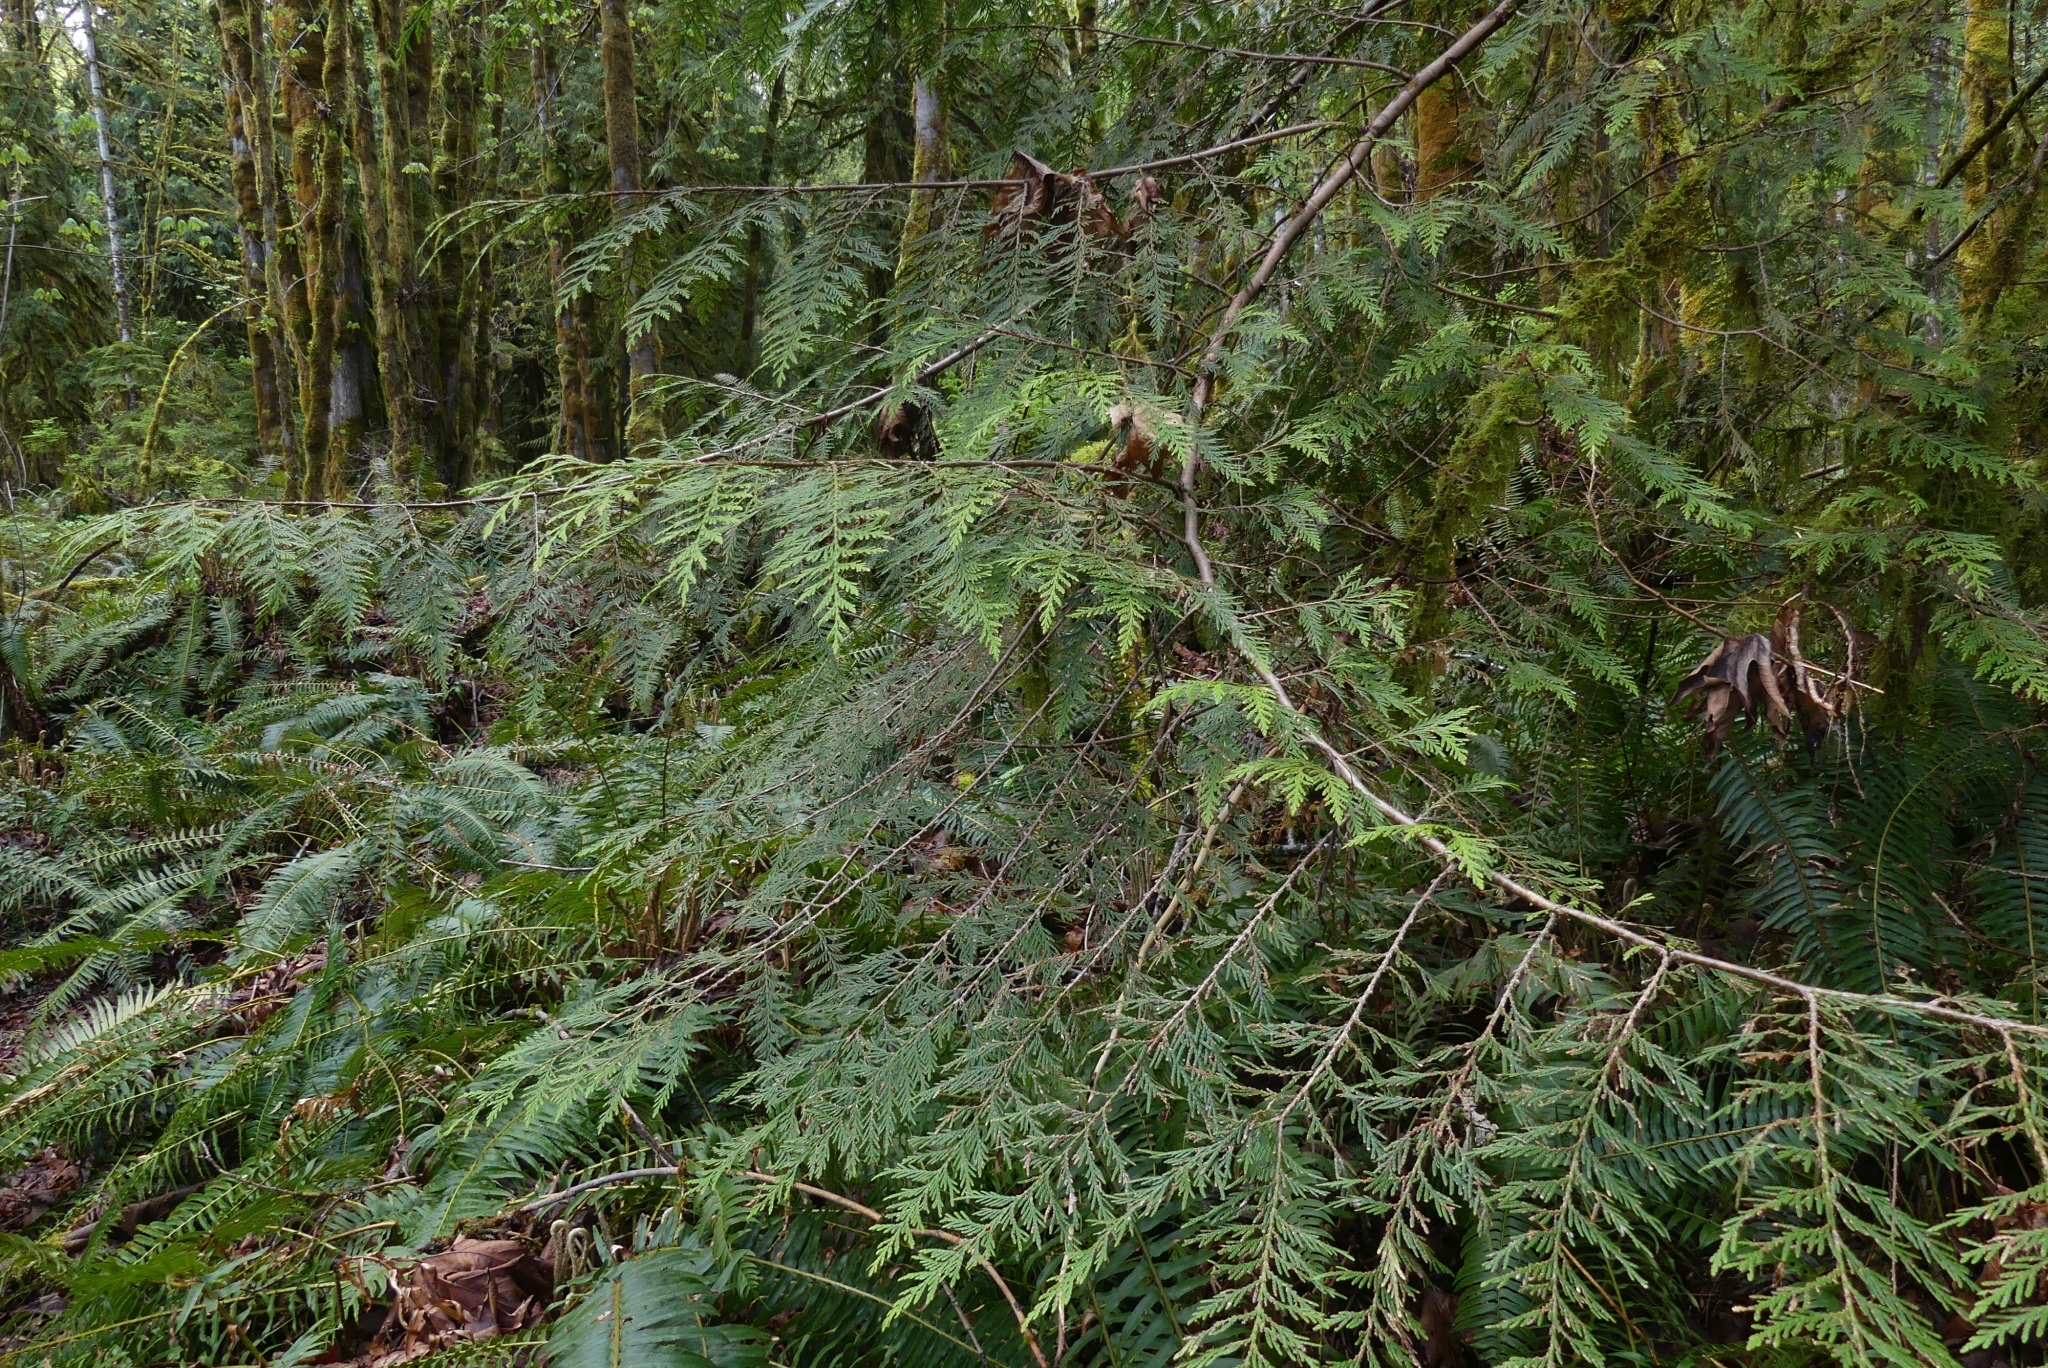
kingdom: Plantae
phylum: Tracheophyta
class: Pinopsida
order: Pinales
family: Cupressaceae
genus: Thuja
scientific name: Thuja plicata
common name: Western red-cedar
